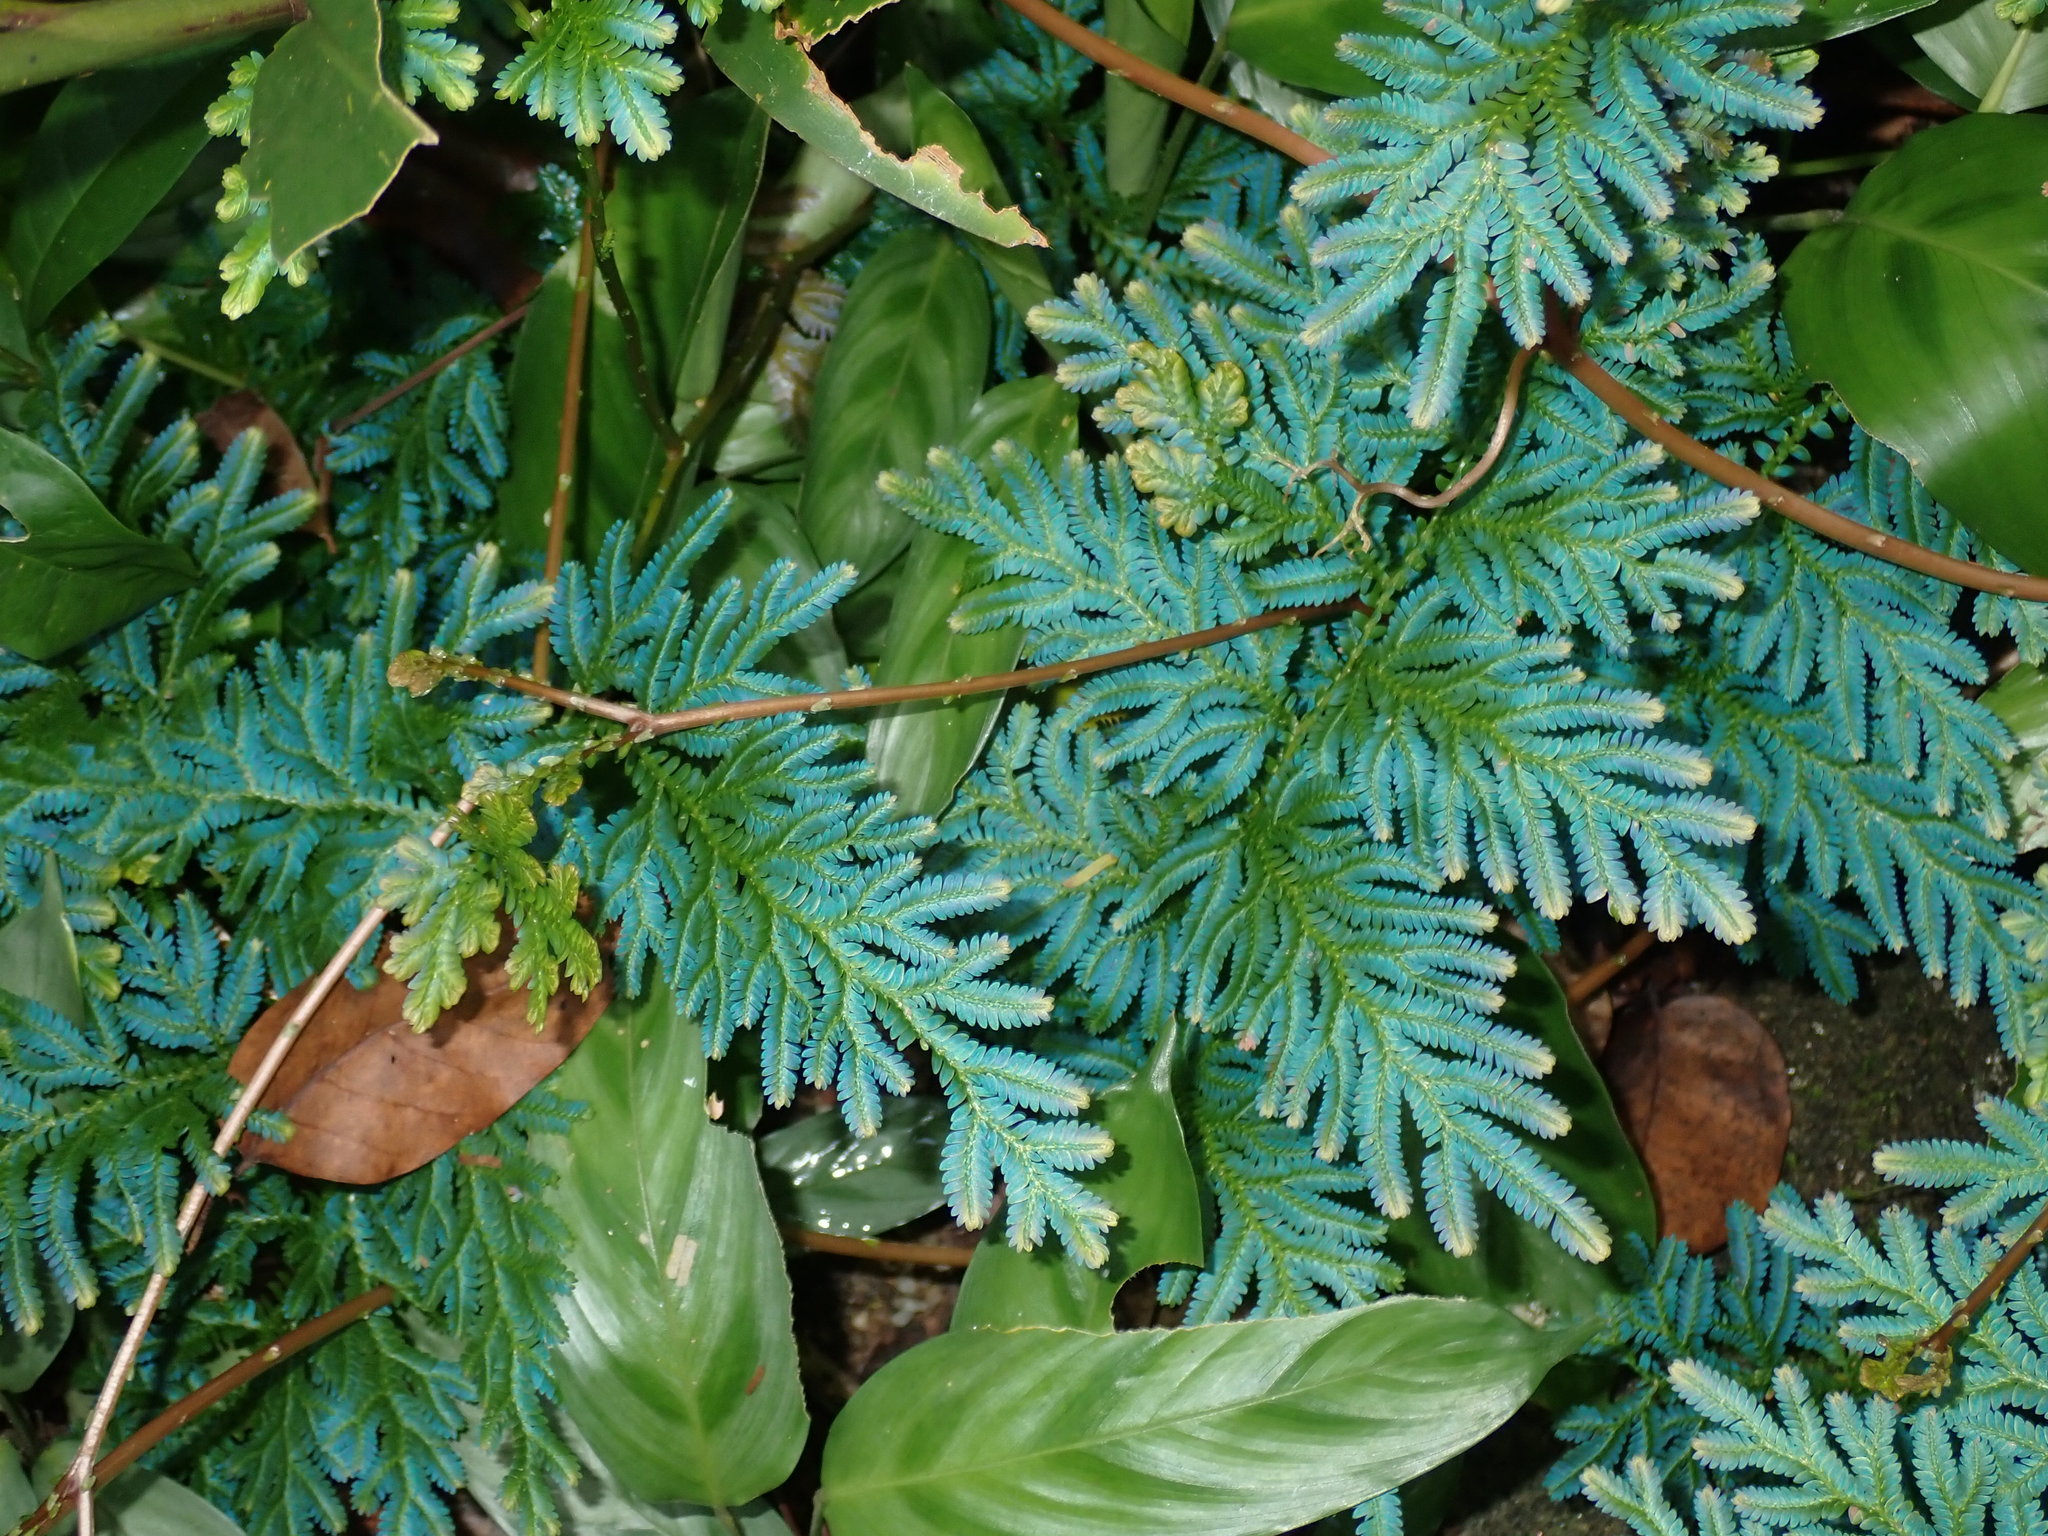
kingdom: Plantae
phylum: Tracheophyta
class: Lycopodiopsida
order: Selaginellales
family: Selaginellaceae
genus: Selaginella
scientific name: Selaginella willdenowii
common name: Willdenow's spikemoss
